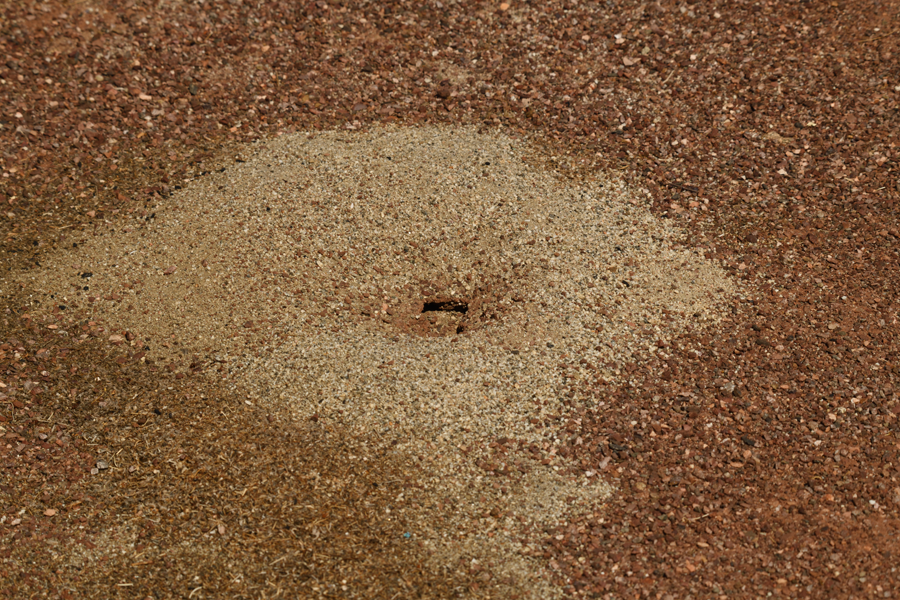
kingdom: Animalia
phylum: Arthropoda
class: Insecta
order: Hymenoptera
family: Formicidae
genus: Messor
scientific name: Messor pergandei
